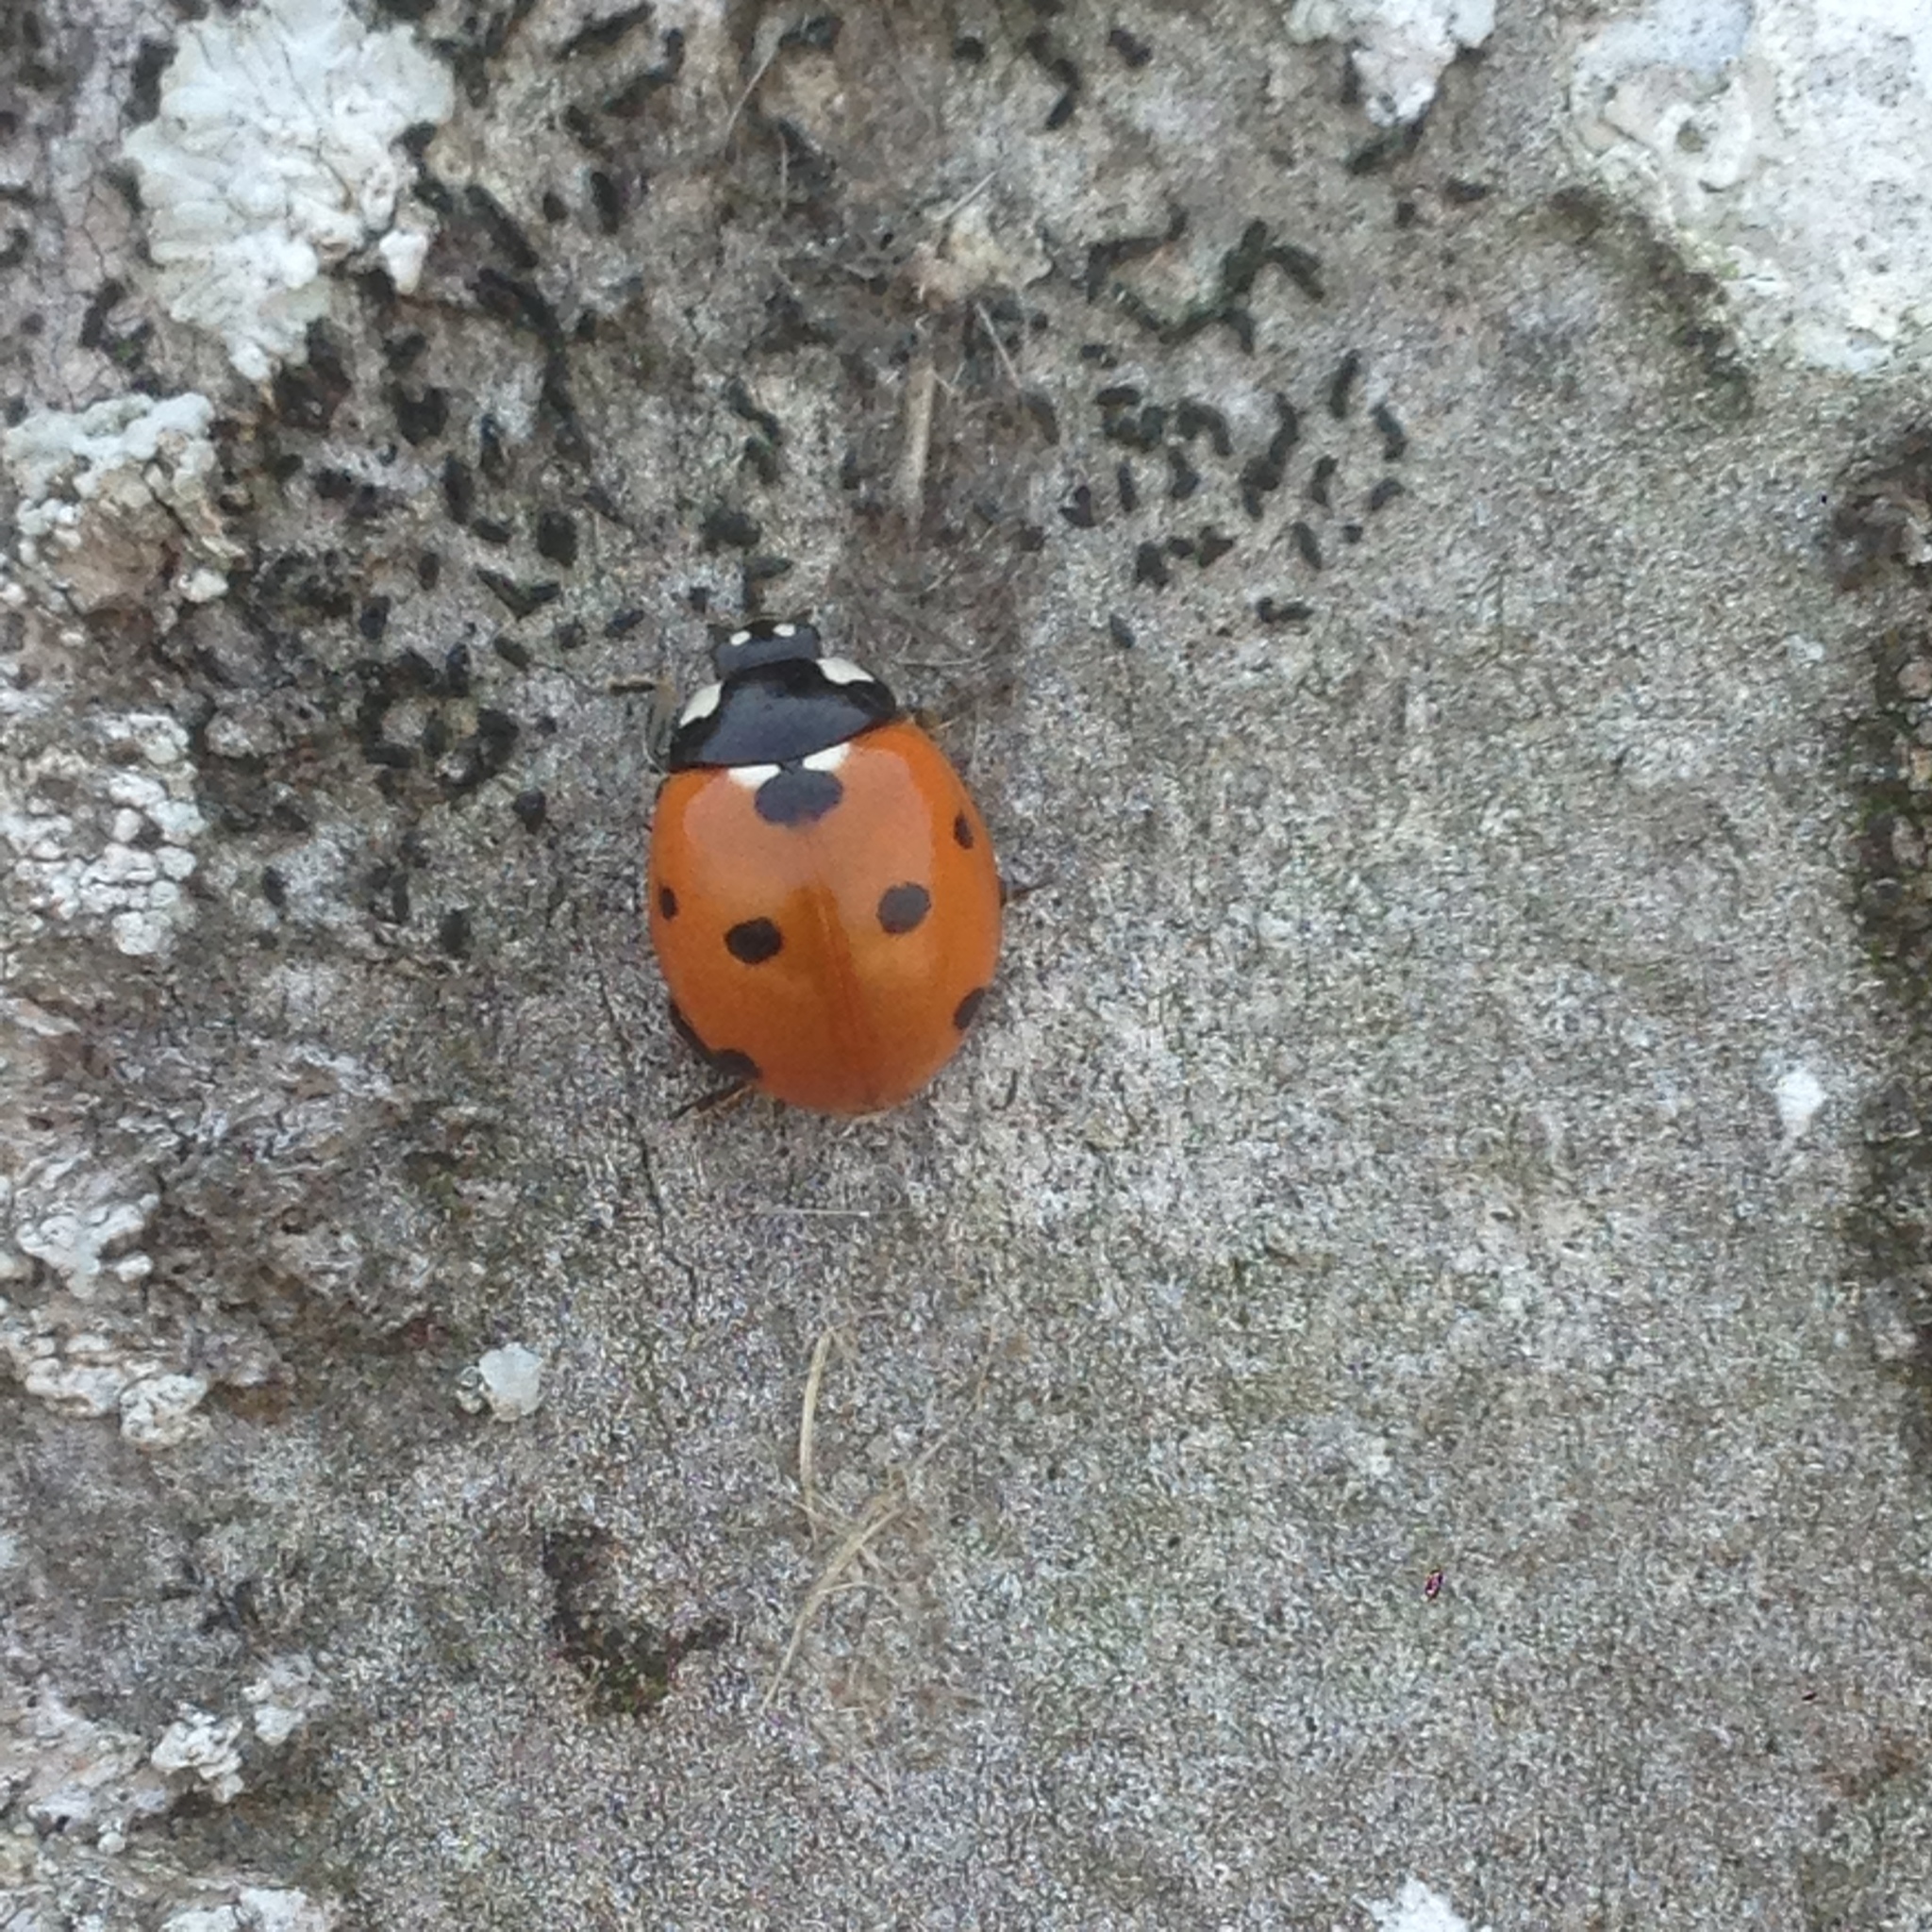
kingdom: Animalia
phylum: Arthropoda
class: Insecta
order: Coleoptera
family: Coccinellidae
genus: Coccinella
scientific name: Coccinella septempunctata
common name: Sevenspotted lady beetle
